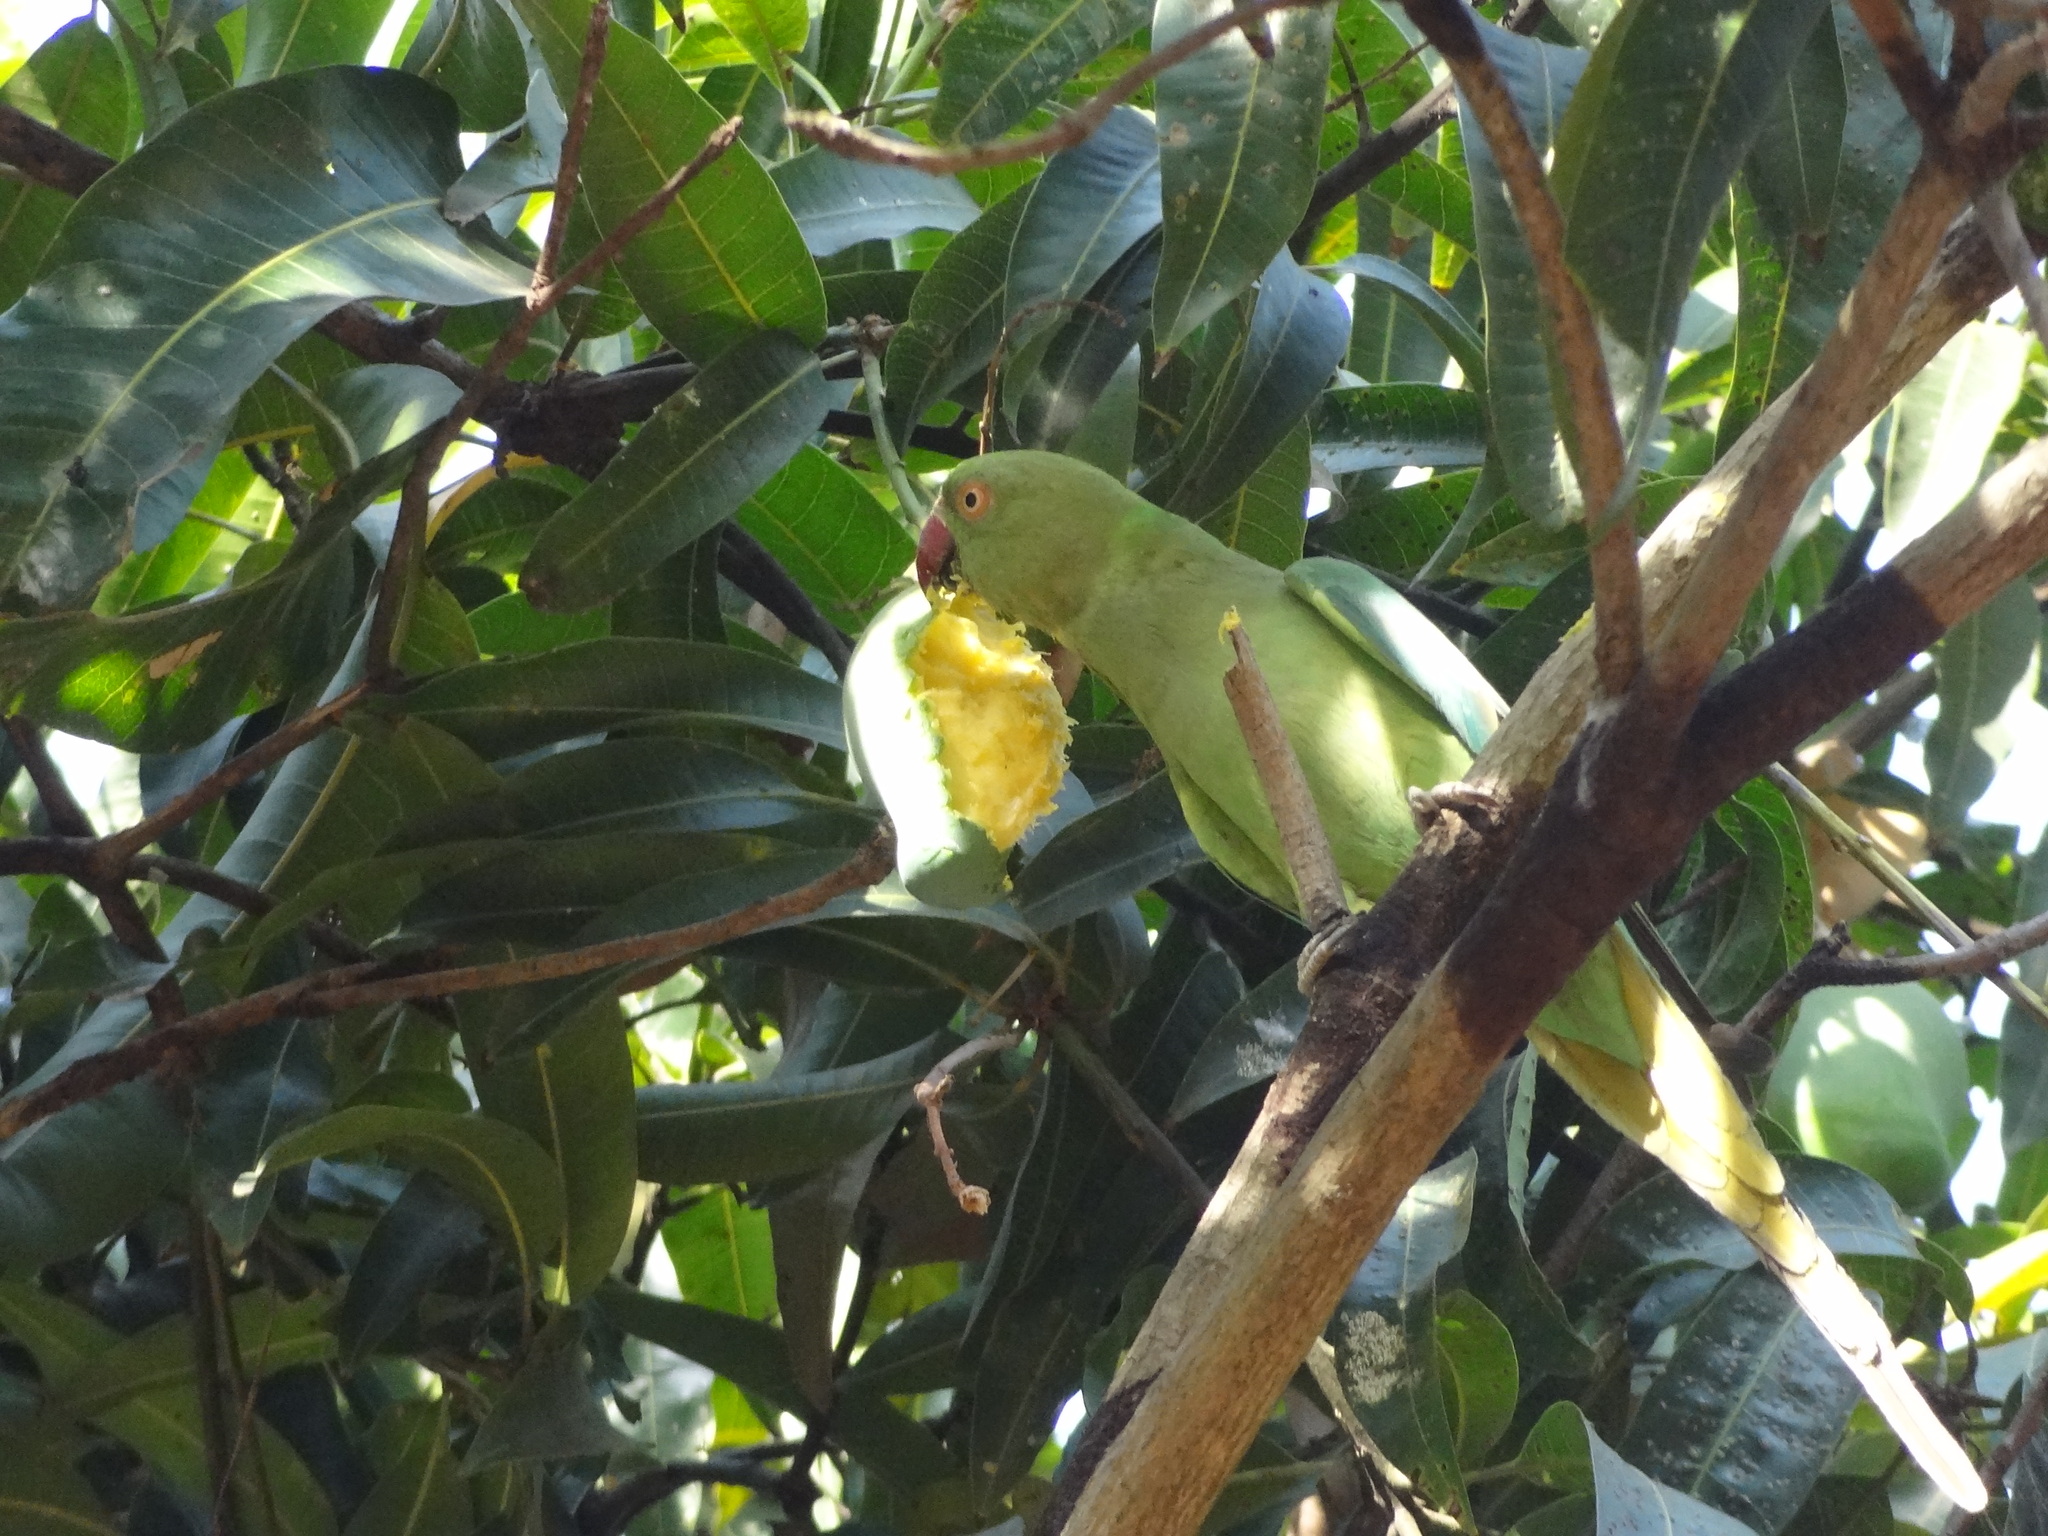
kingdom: Animalia
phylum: Chordata
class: Aves
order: Psittaciformes
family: Psittacidae
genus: Psittacula
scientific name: Psittacula krameri
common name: Rose-ringed parakeet
